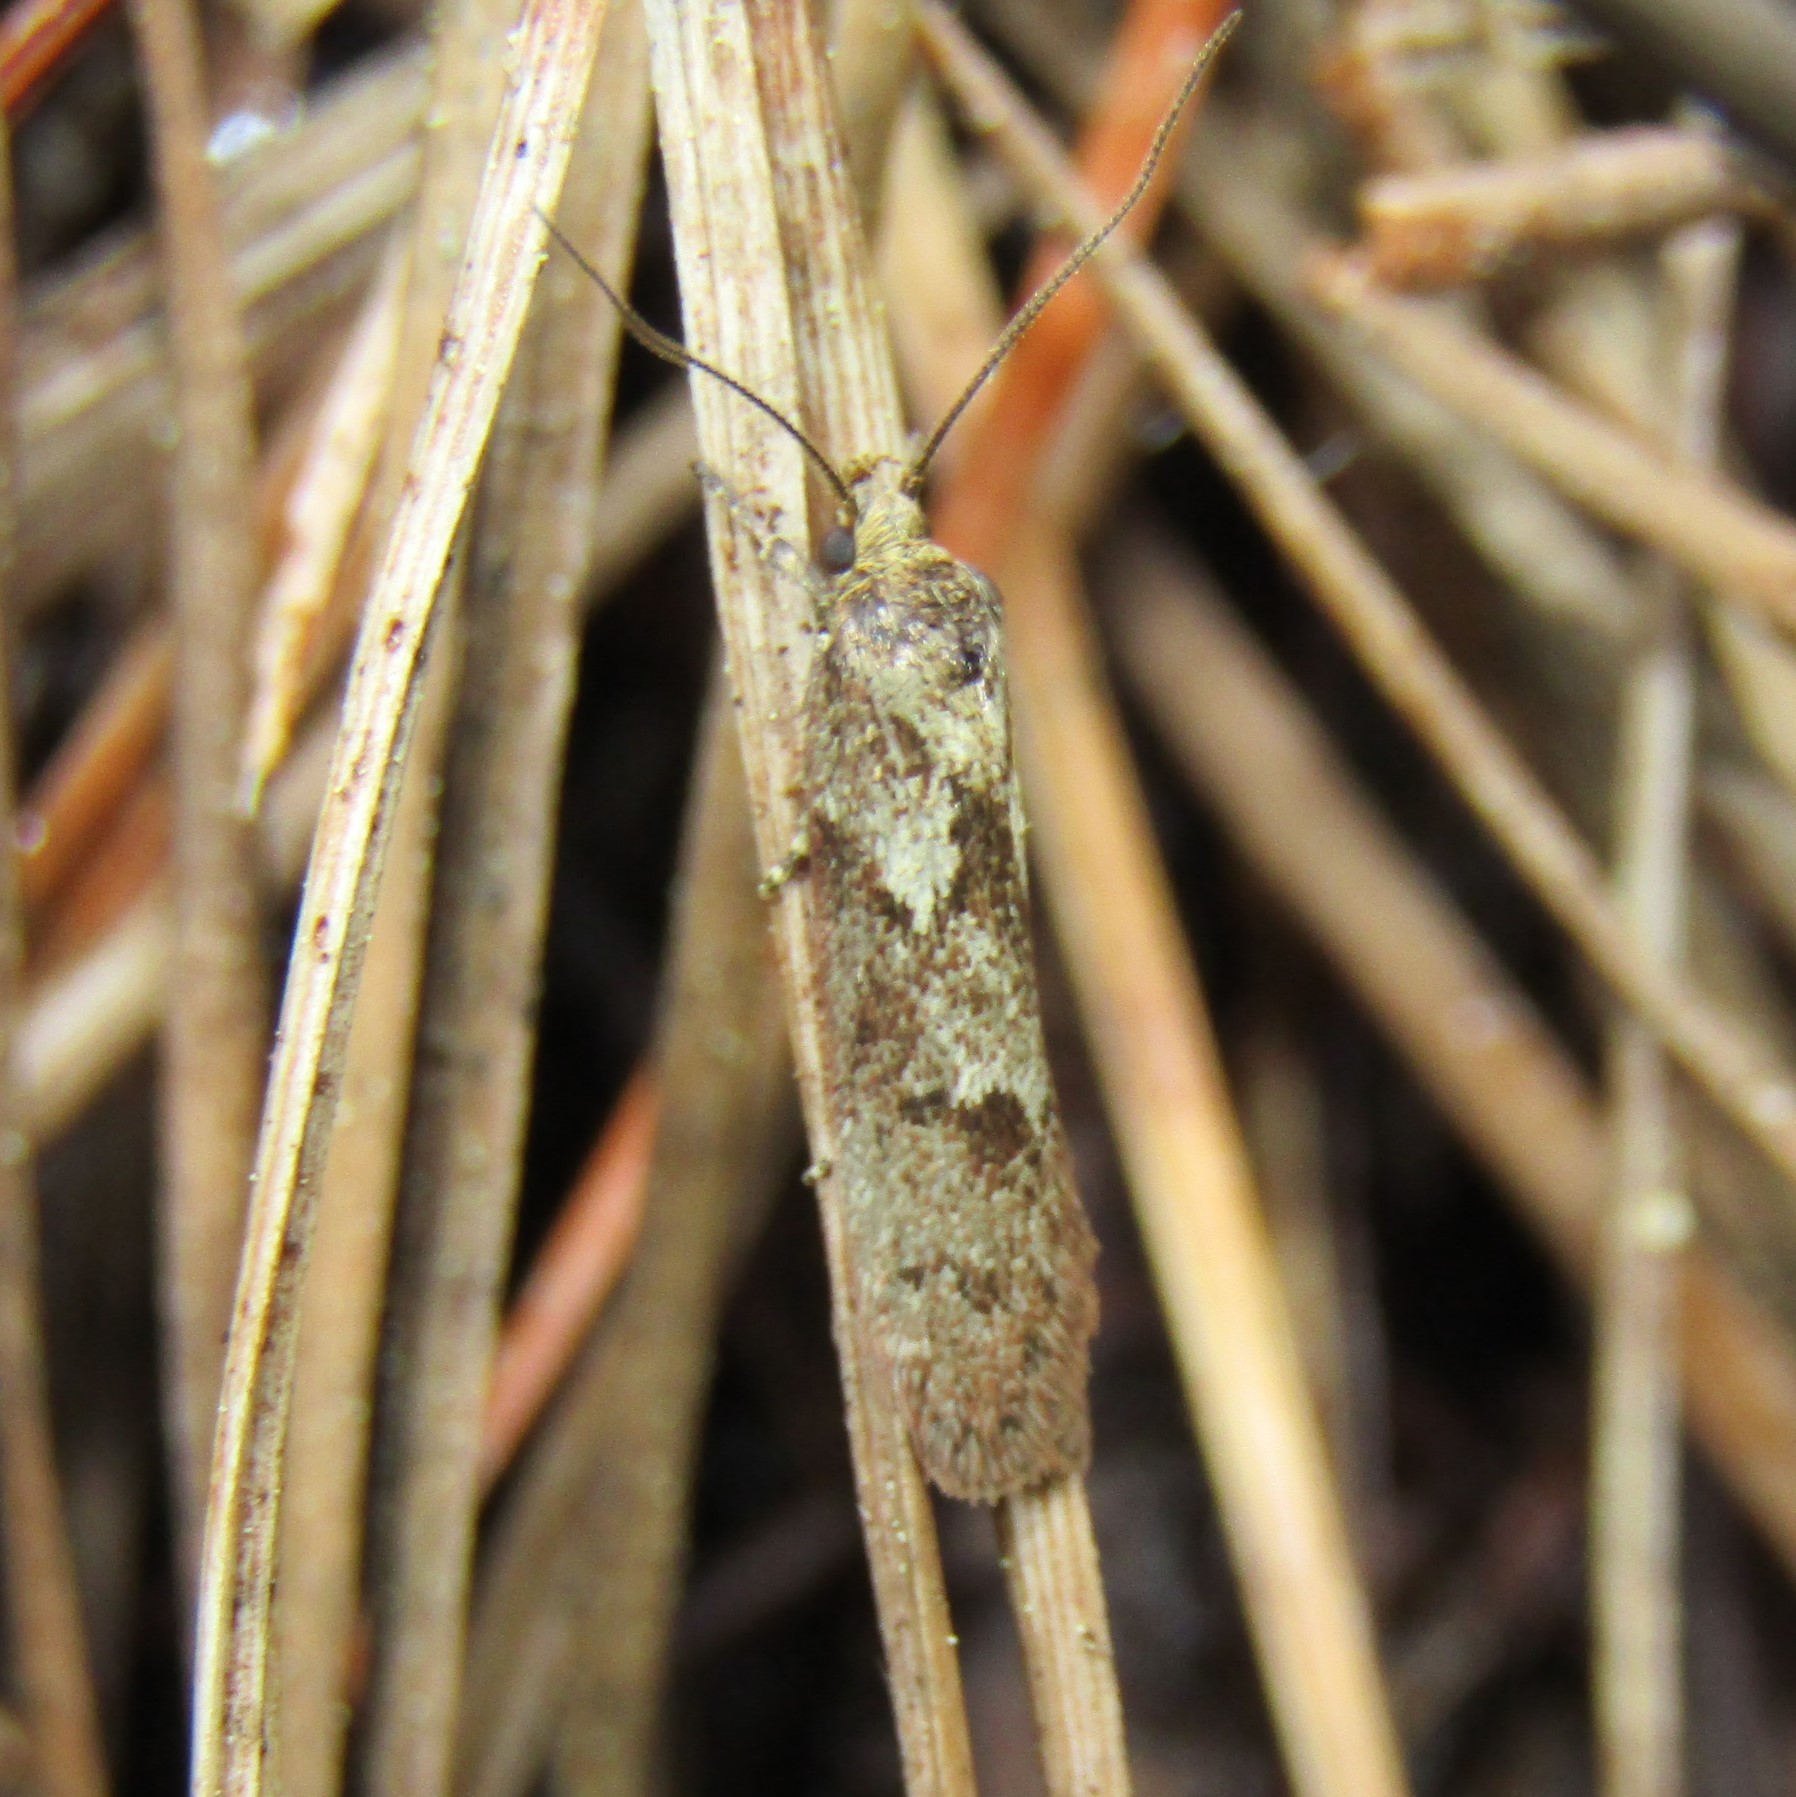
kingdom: Animalia
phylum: Arthropoda
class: Insecta
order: Lepidoptera
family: Oecophoridae
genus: Chersadaula
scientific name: Chersadaula ochrogastra
